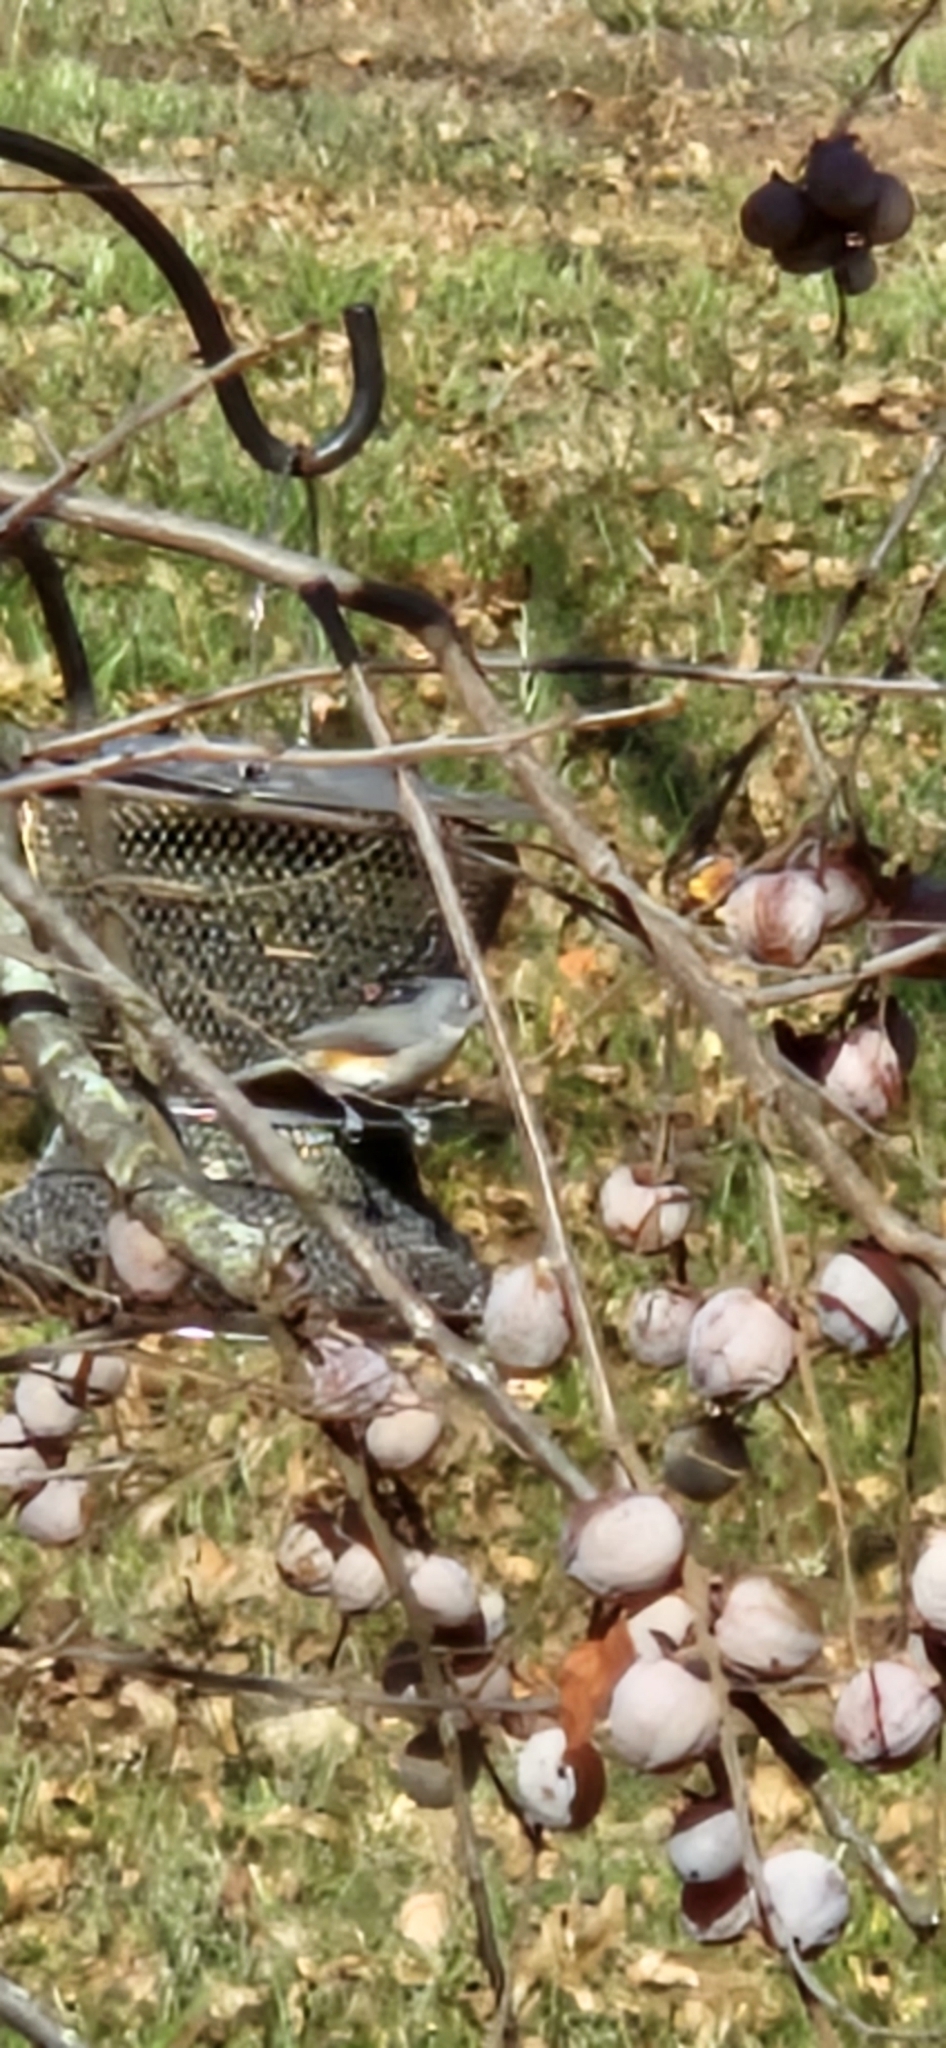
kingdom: Animalia
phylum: Chordata
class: Aves
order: Passeriformes
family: Paridae
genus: Baeolophus
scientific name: Baeolophus bicolor
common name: Tufted titmouse
